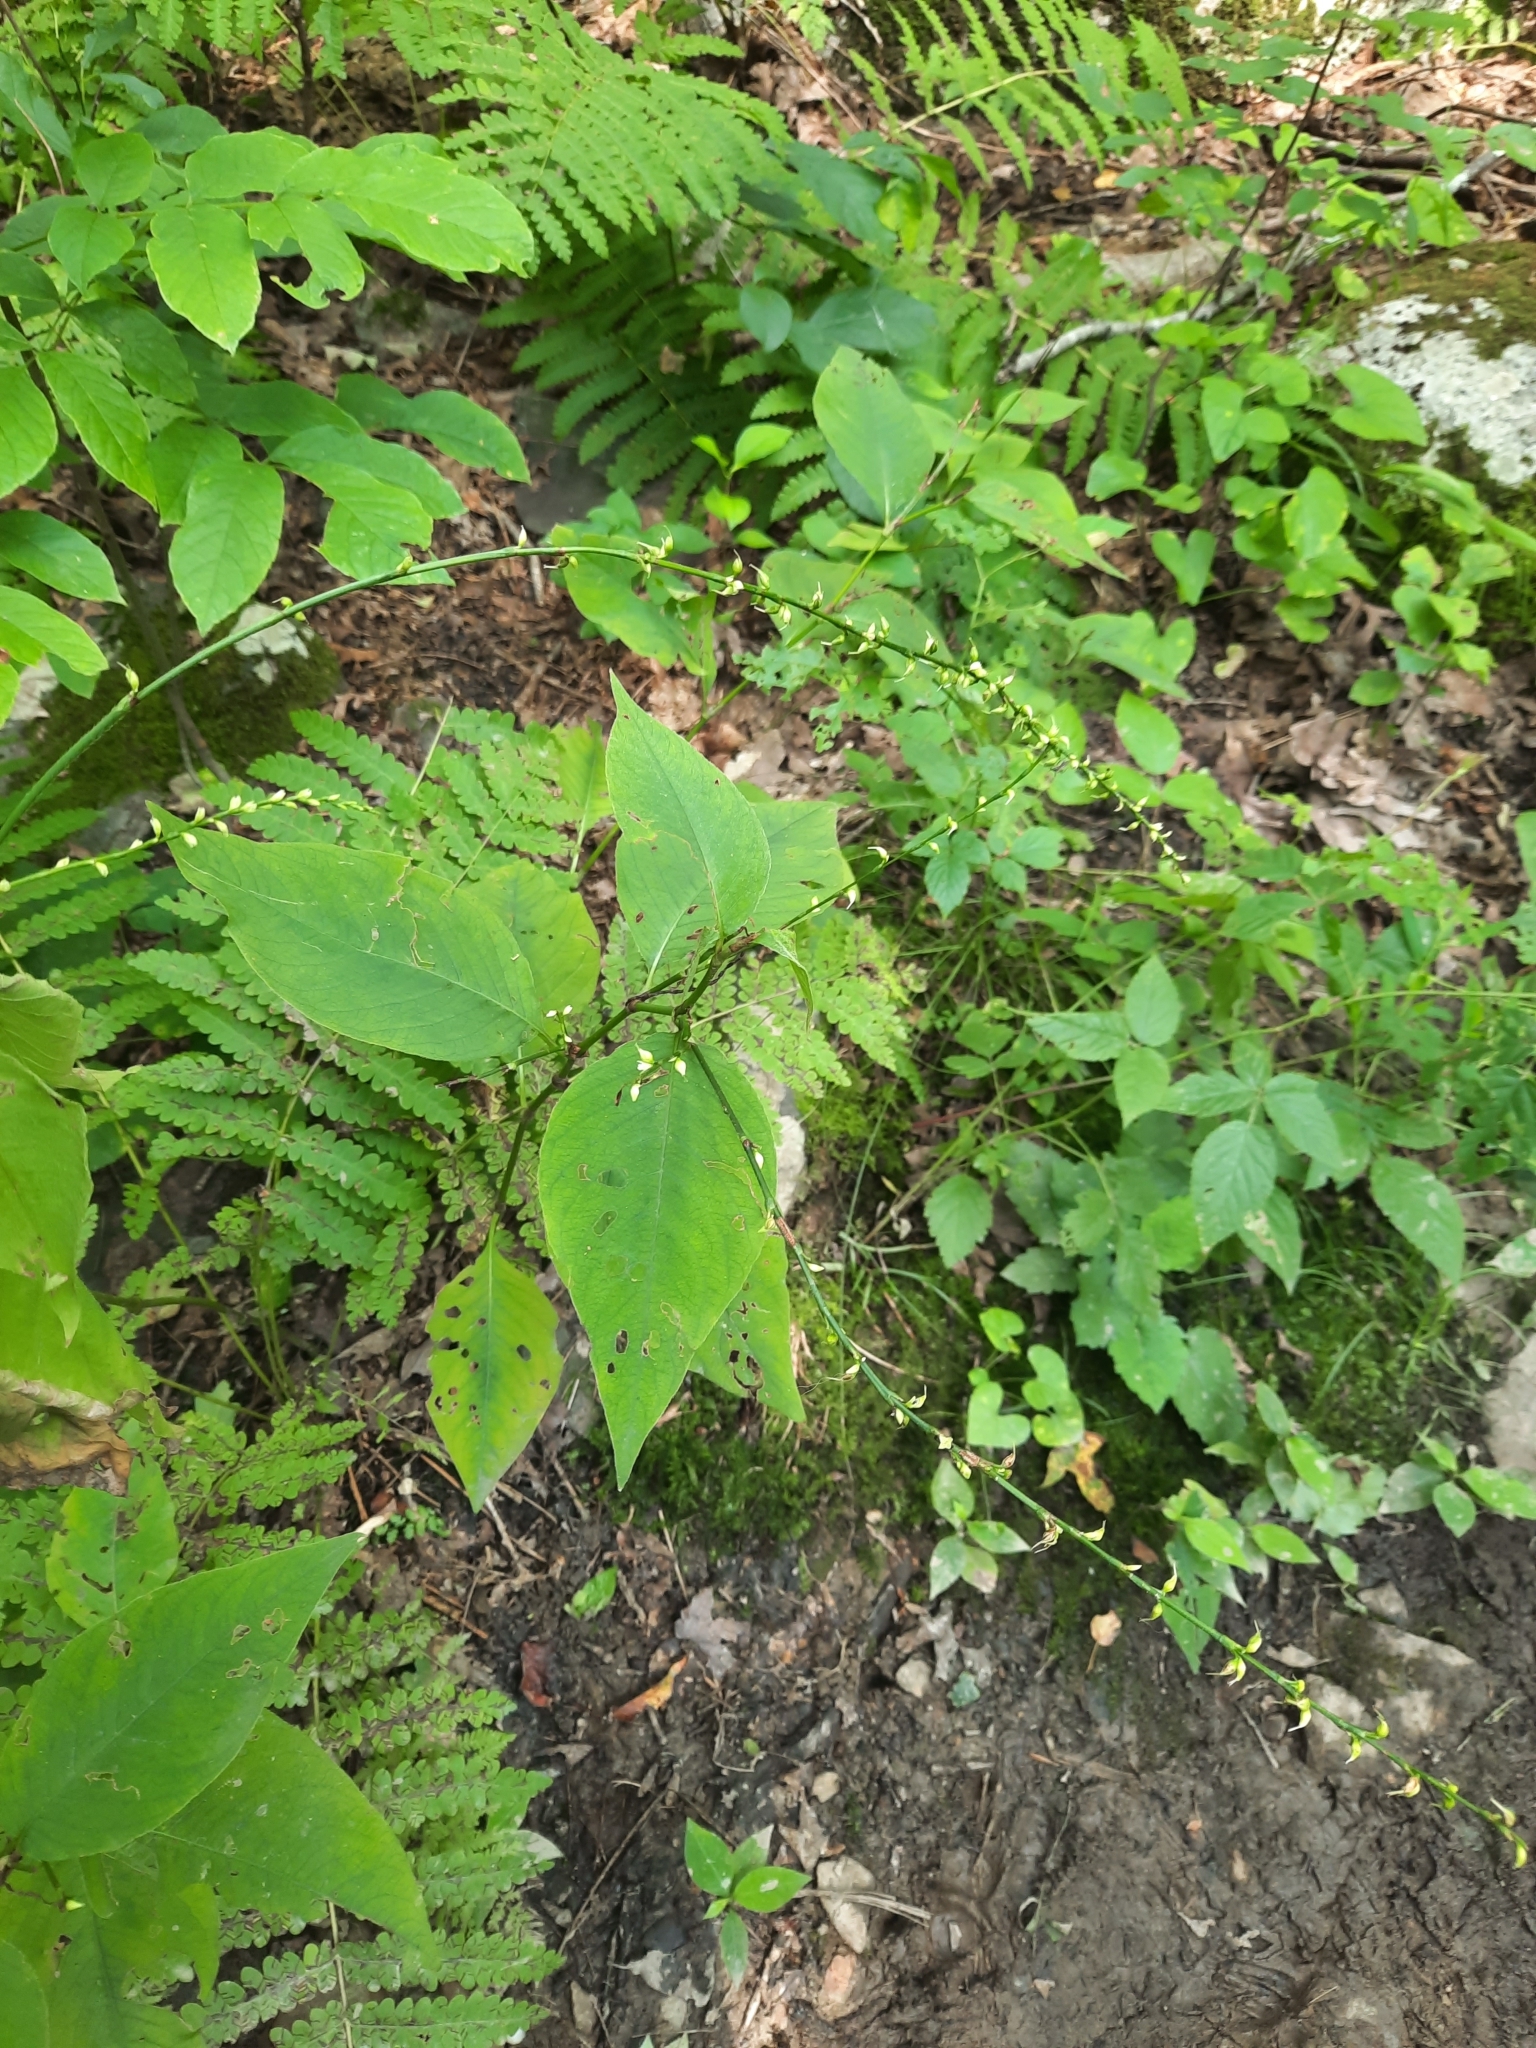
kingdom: Plantae
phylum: Tracheophyta
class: Polypodiopsida
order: Polypodiales
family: Pteridaceae
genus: Adiantum
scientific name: Adiantum pedatum
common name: Five-finger fern
